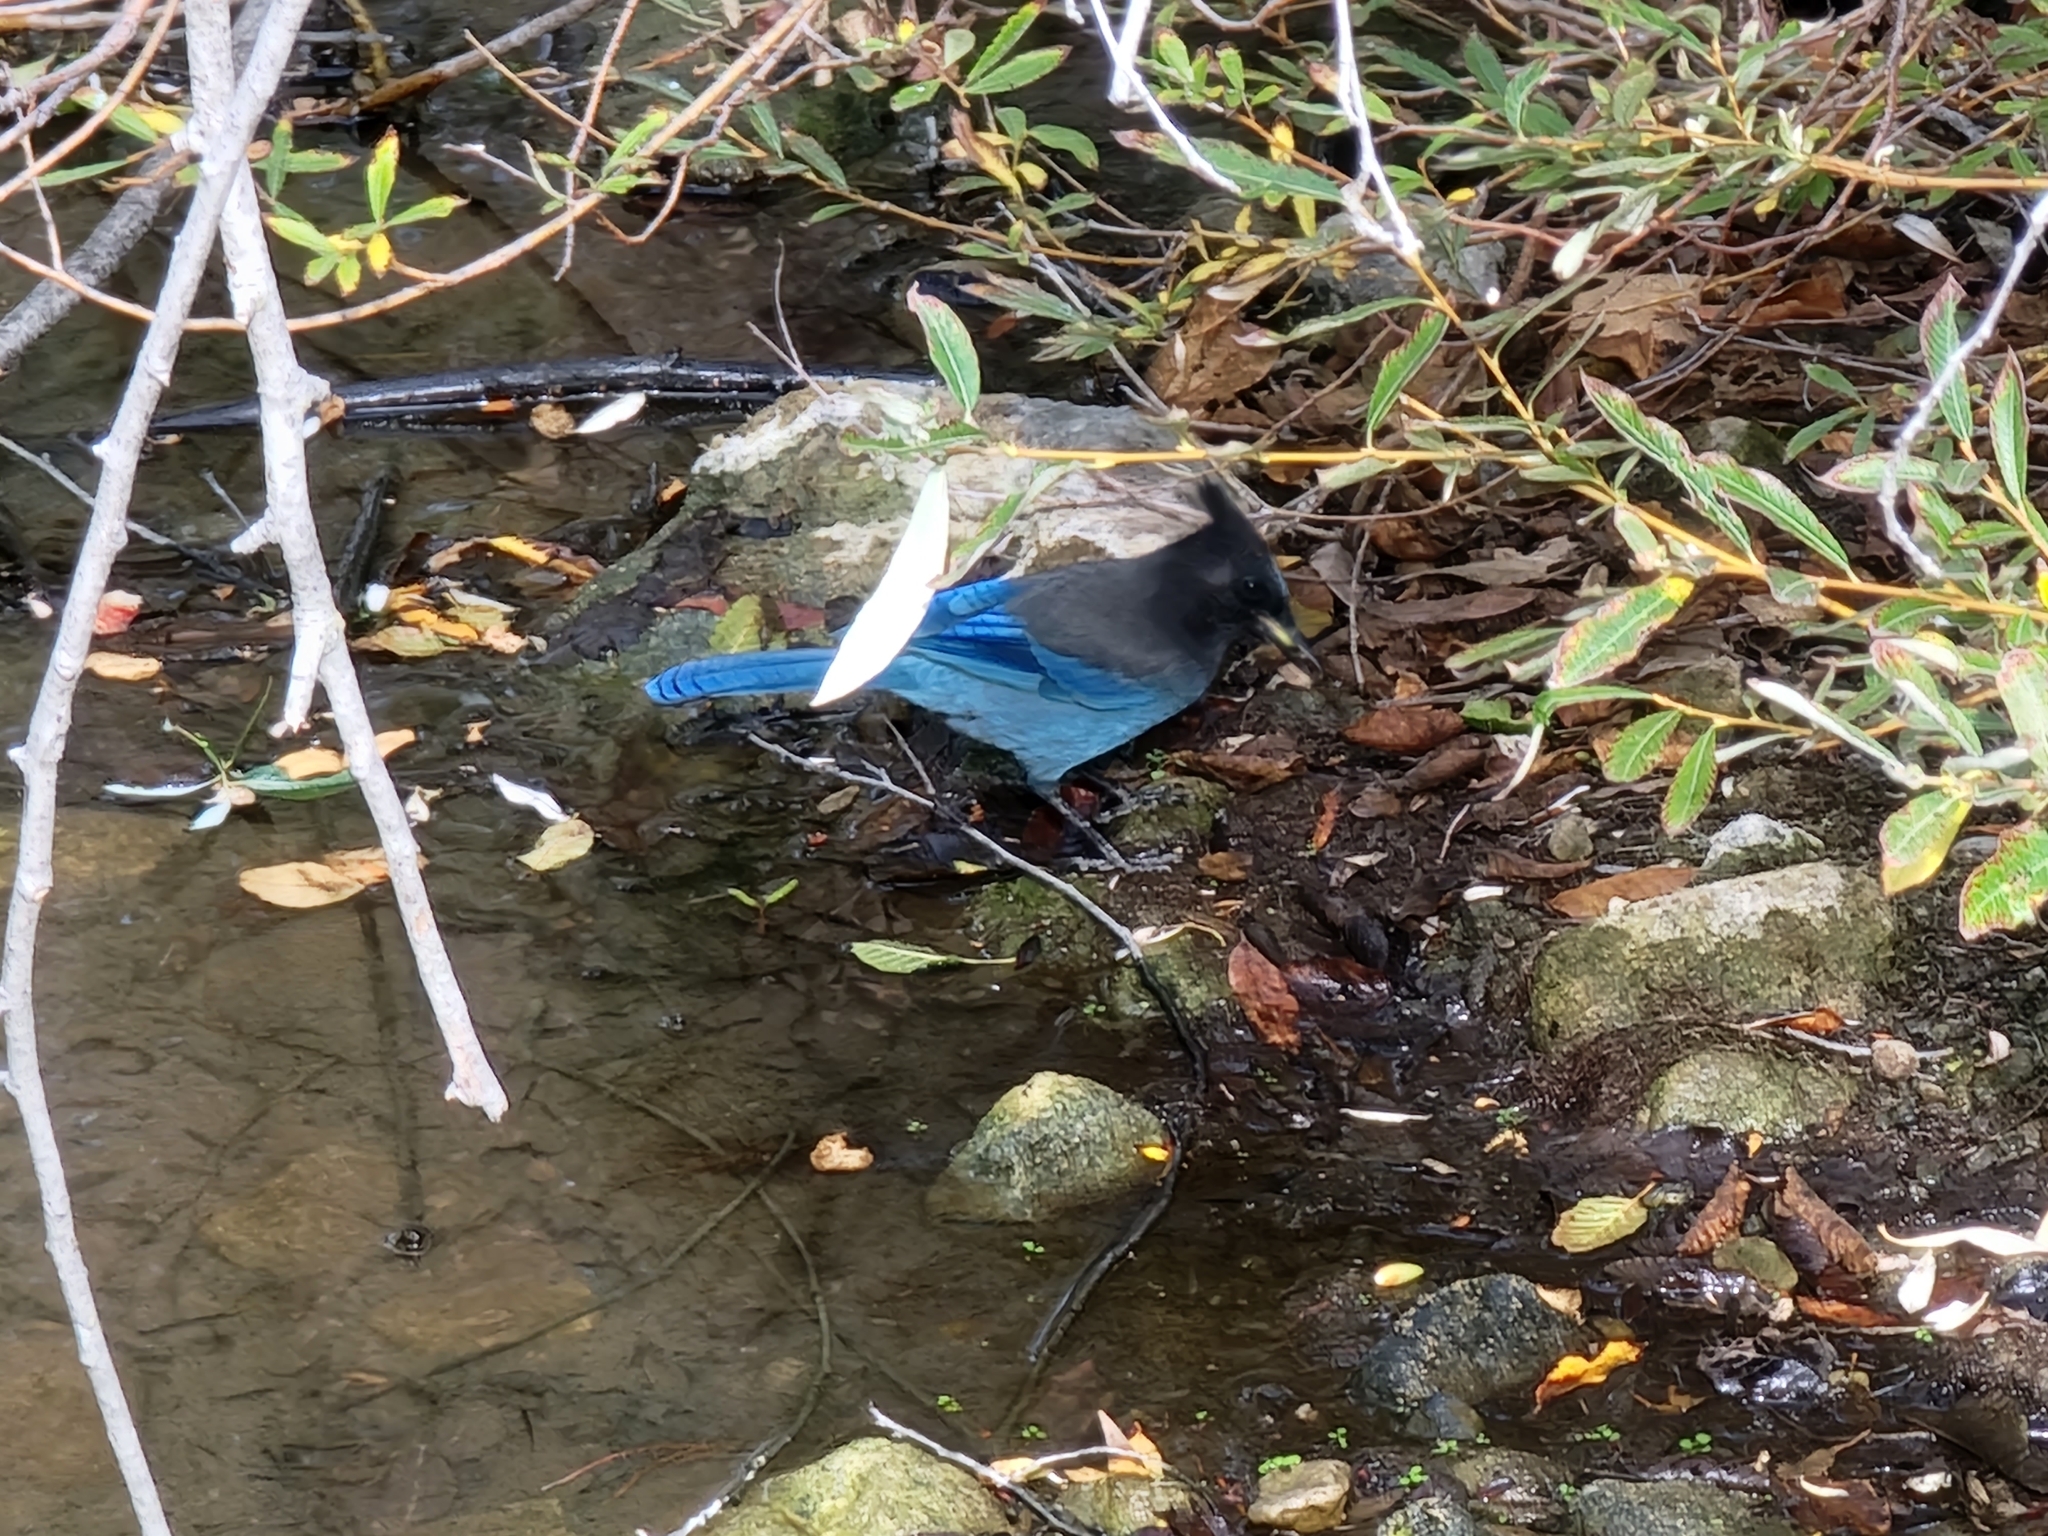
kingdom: Animalia
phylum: Chordata
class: Aves
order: Passeriformes
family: Corvidae
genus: Cyanocitta
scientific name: Cyanocitta stelleri
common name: Steller's jay
